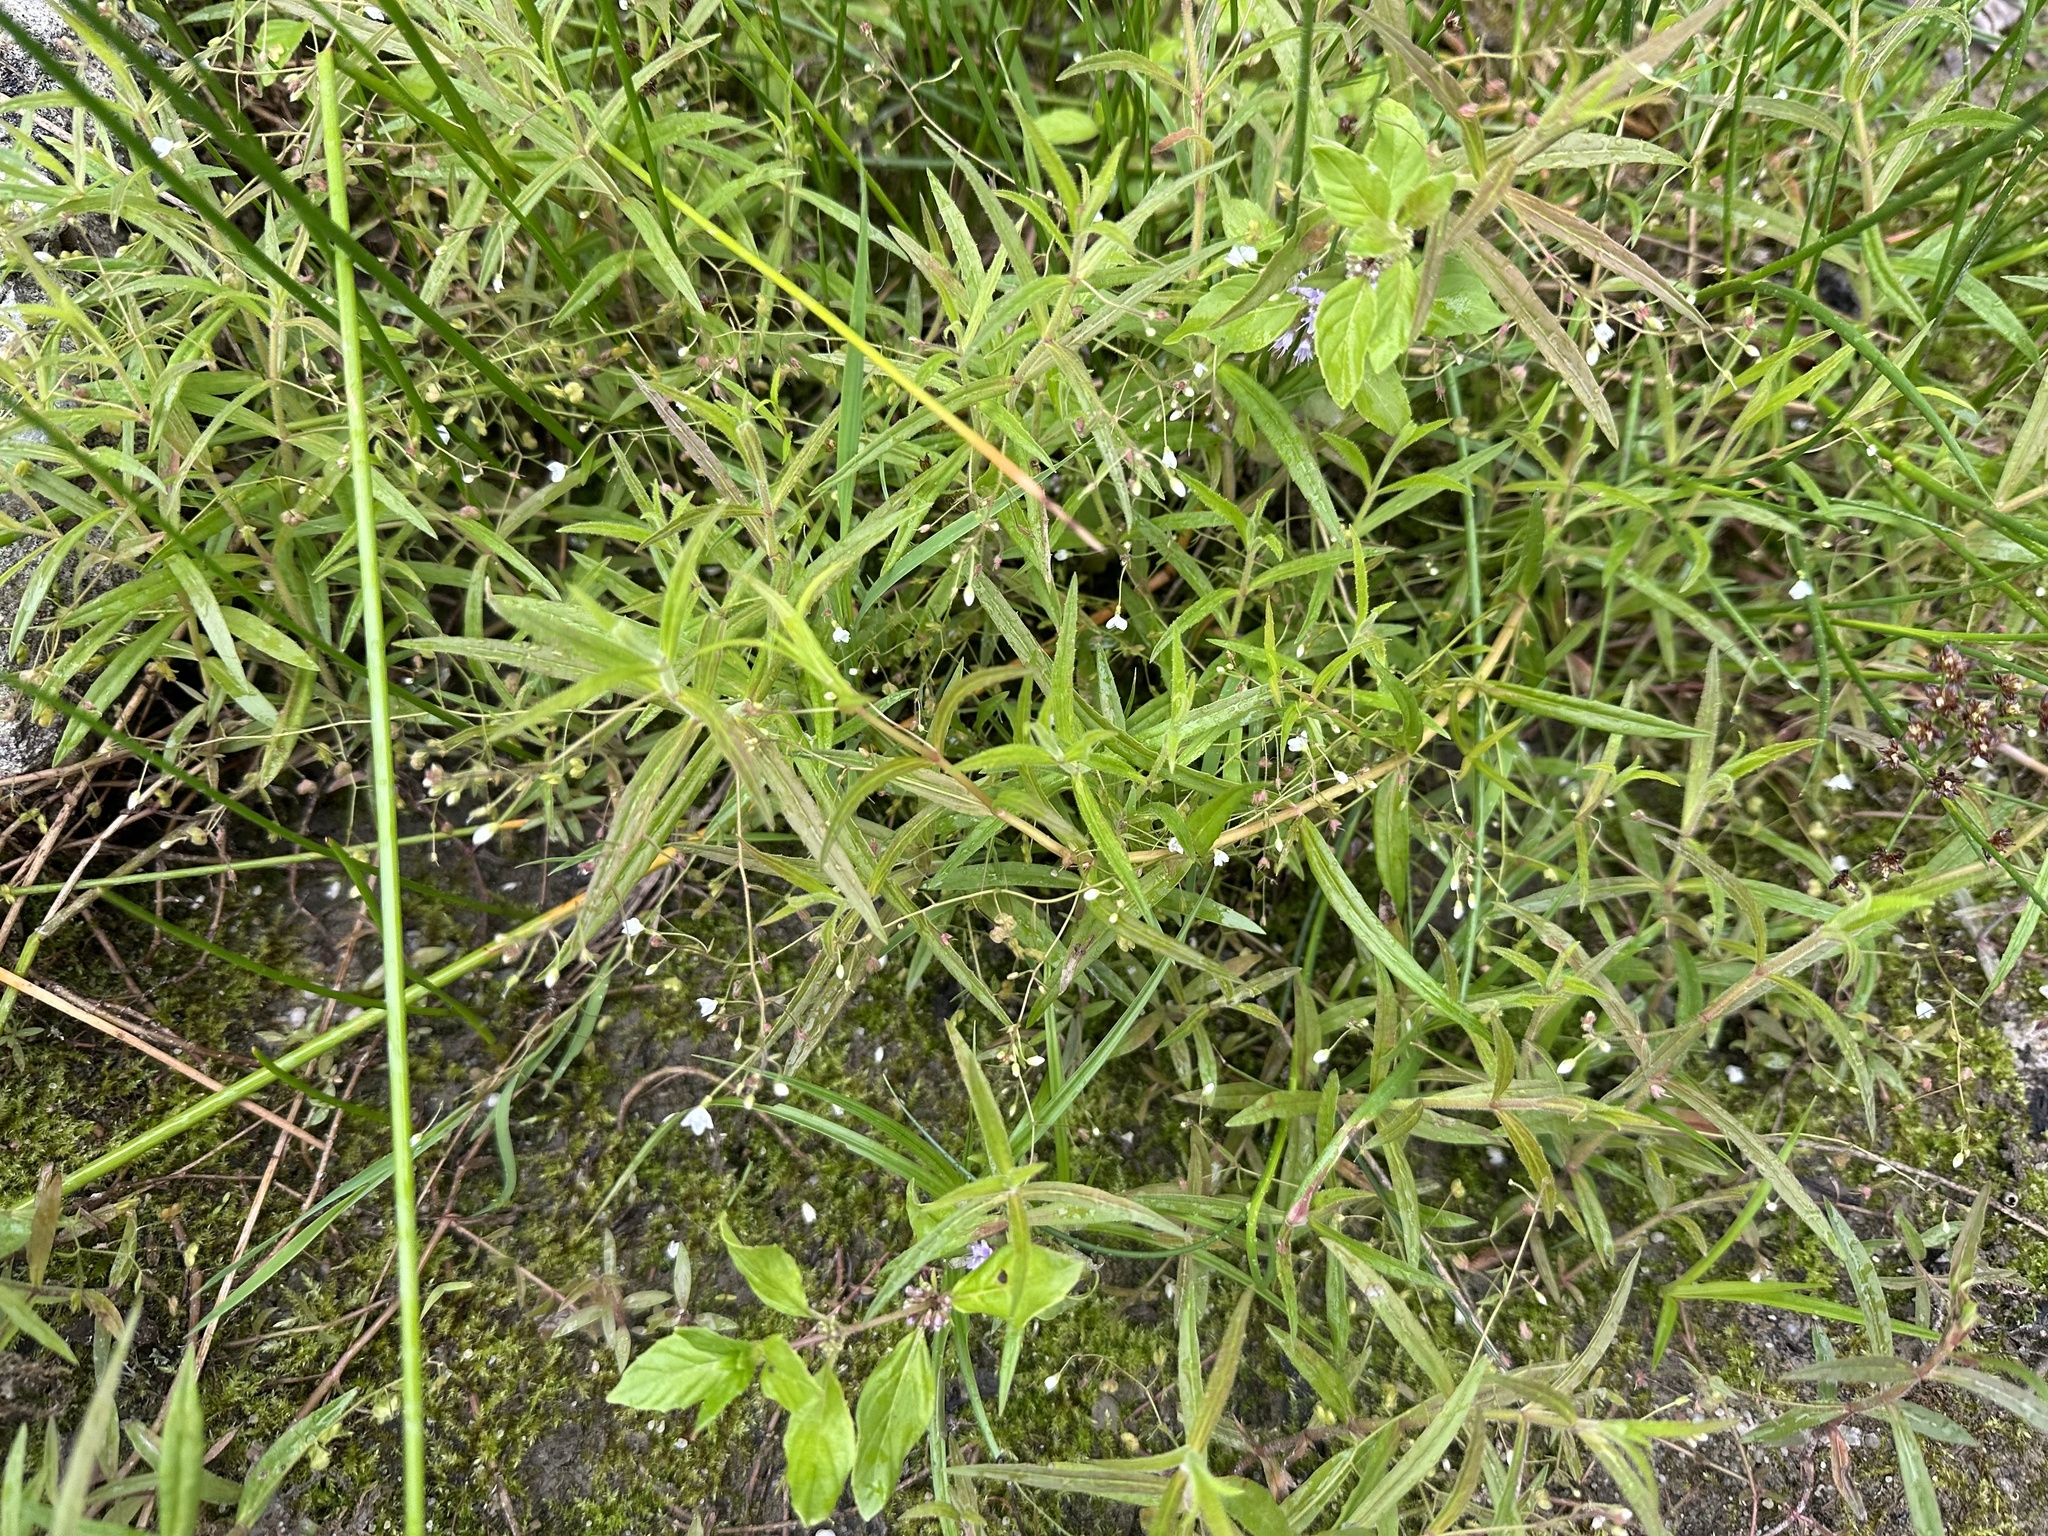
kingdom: Plantae
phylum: Tracheophyta
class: Magnoliopsida
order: Lamiales
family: Plantaginaceae
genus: Veronica
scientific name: Veronica scutellata
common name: Marsh speedwell
